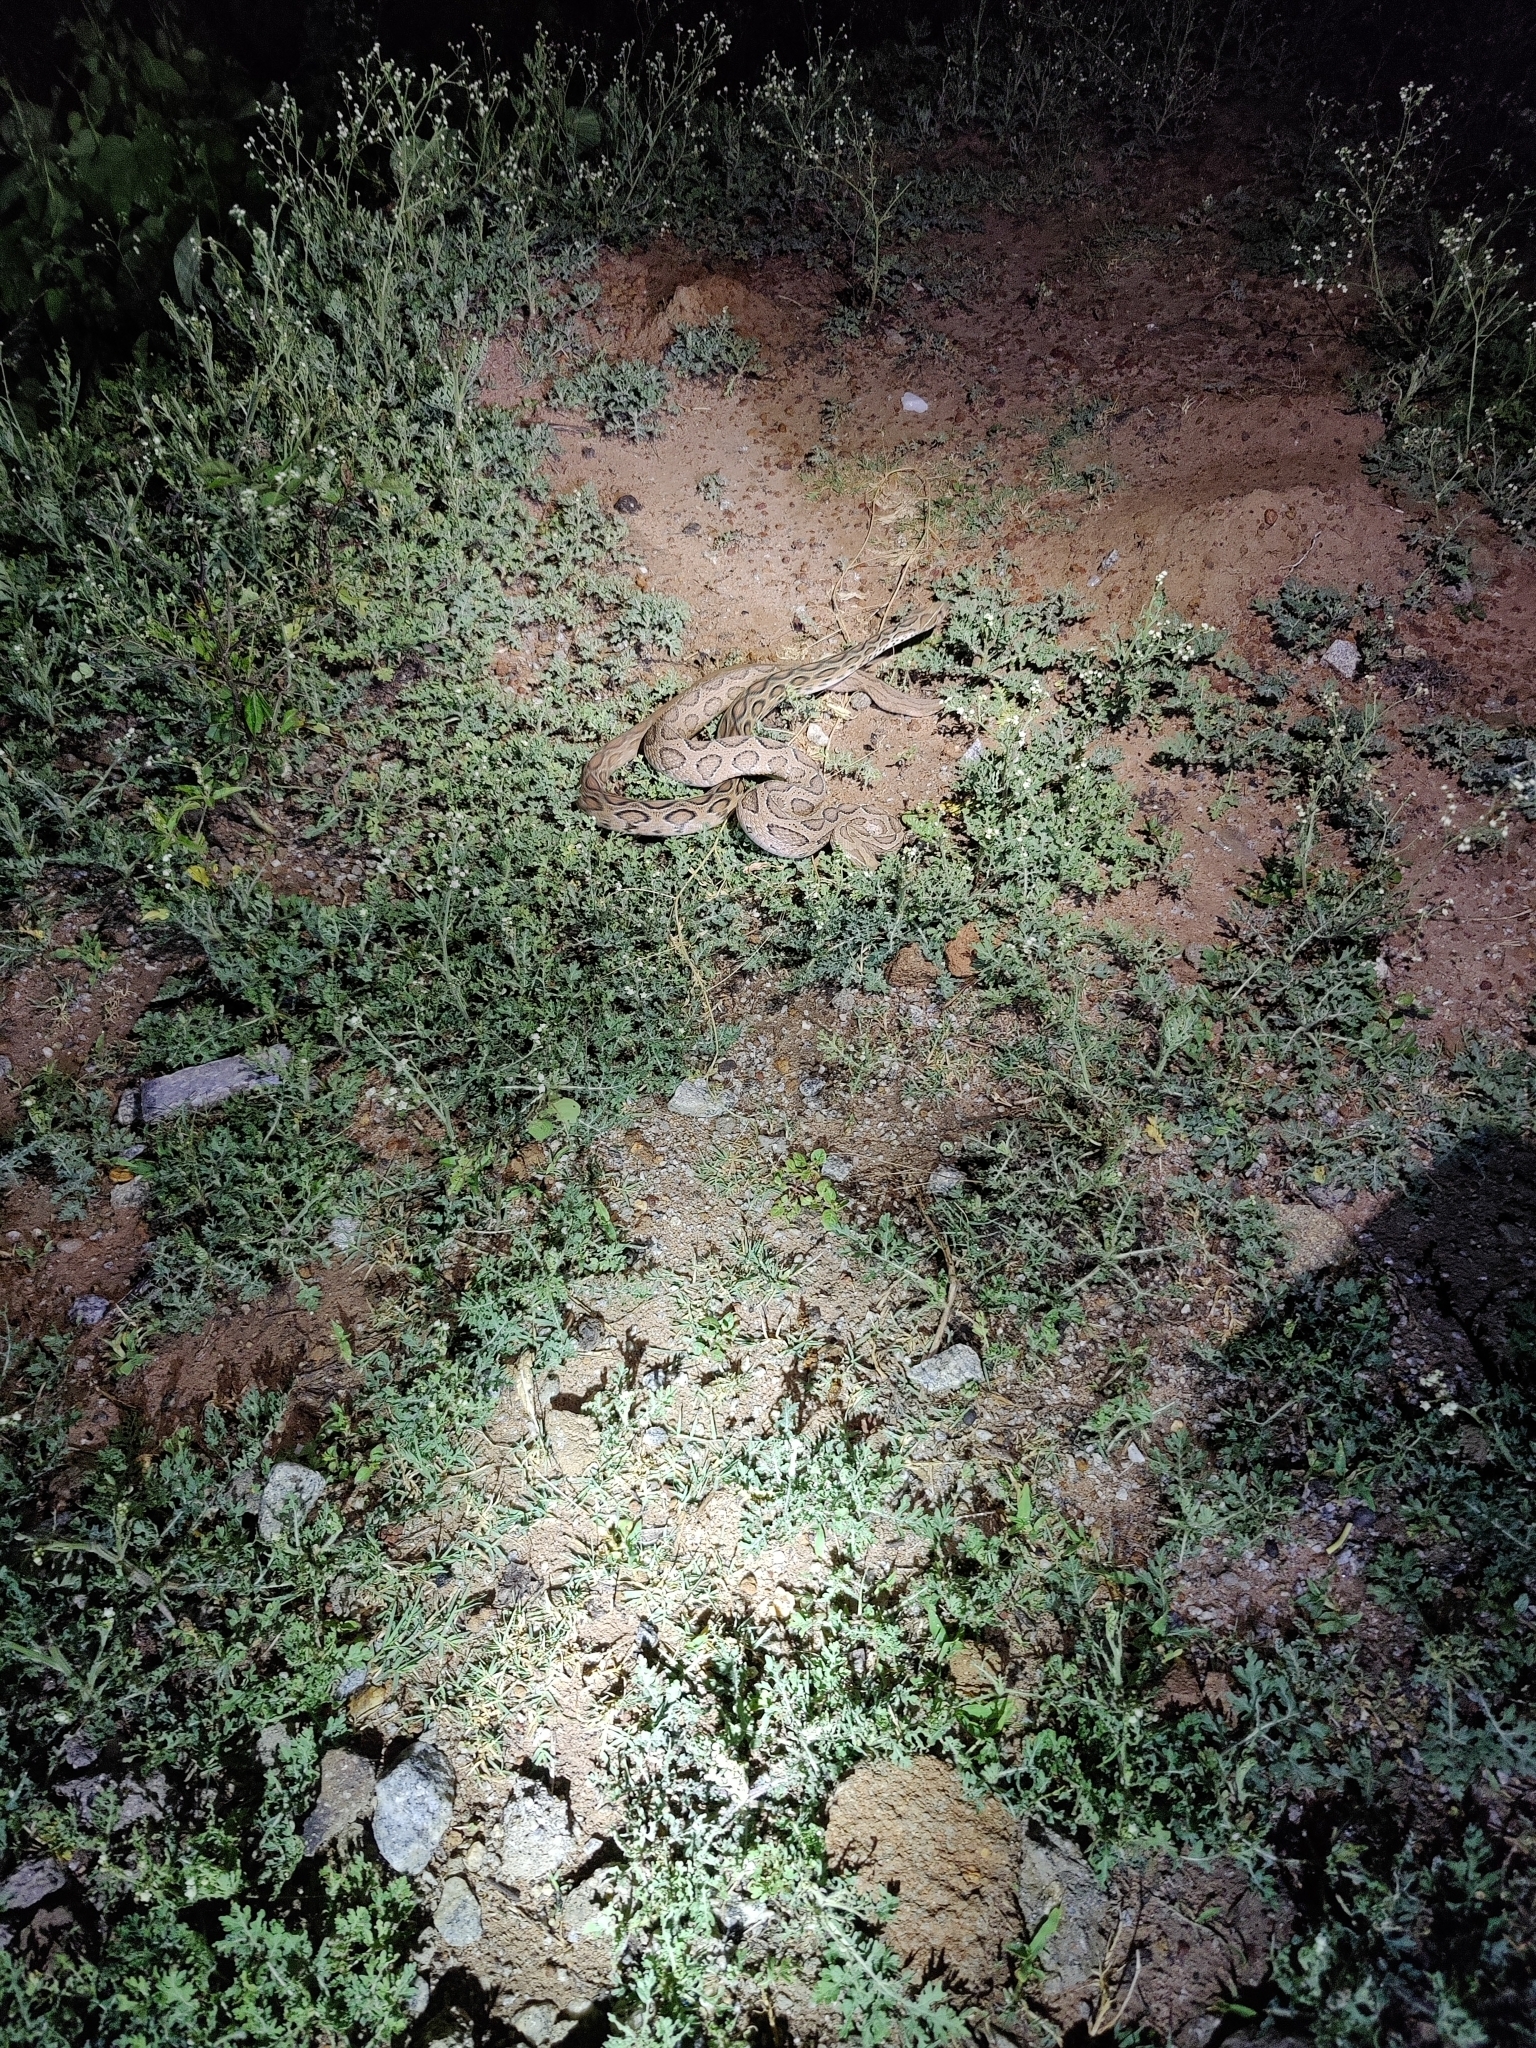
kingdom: Animalia
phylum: Chordata
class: Squamata
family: Viperidae
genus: Daboia
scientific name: Daboia russelii
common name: Western russel’s viper
